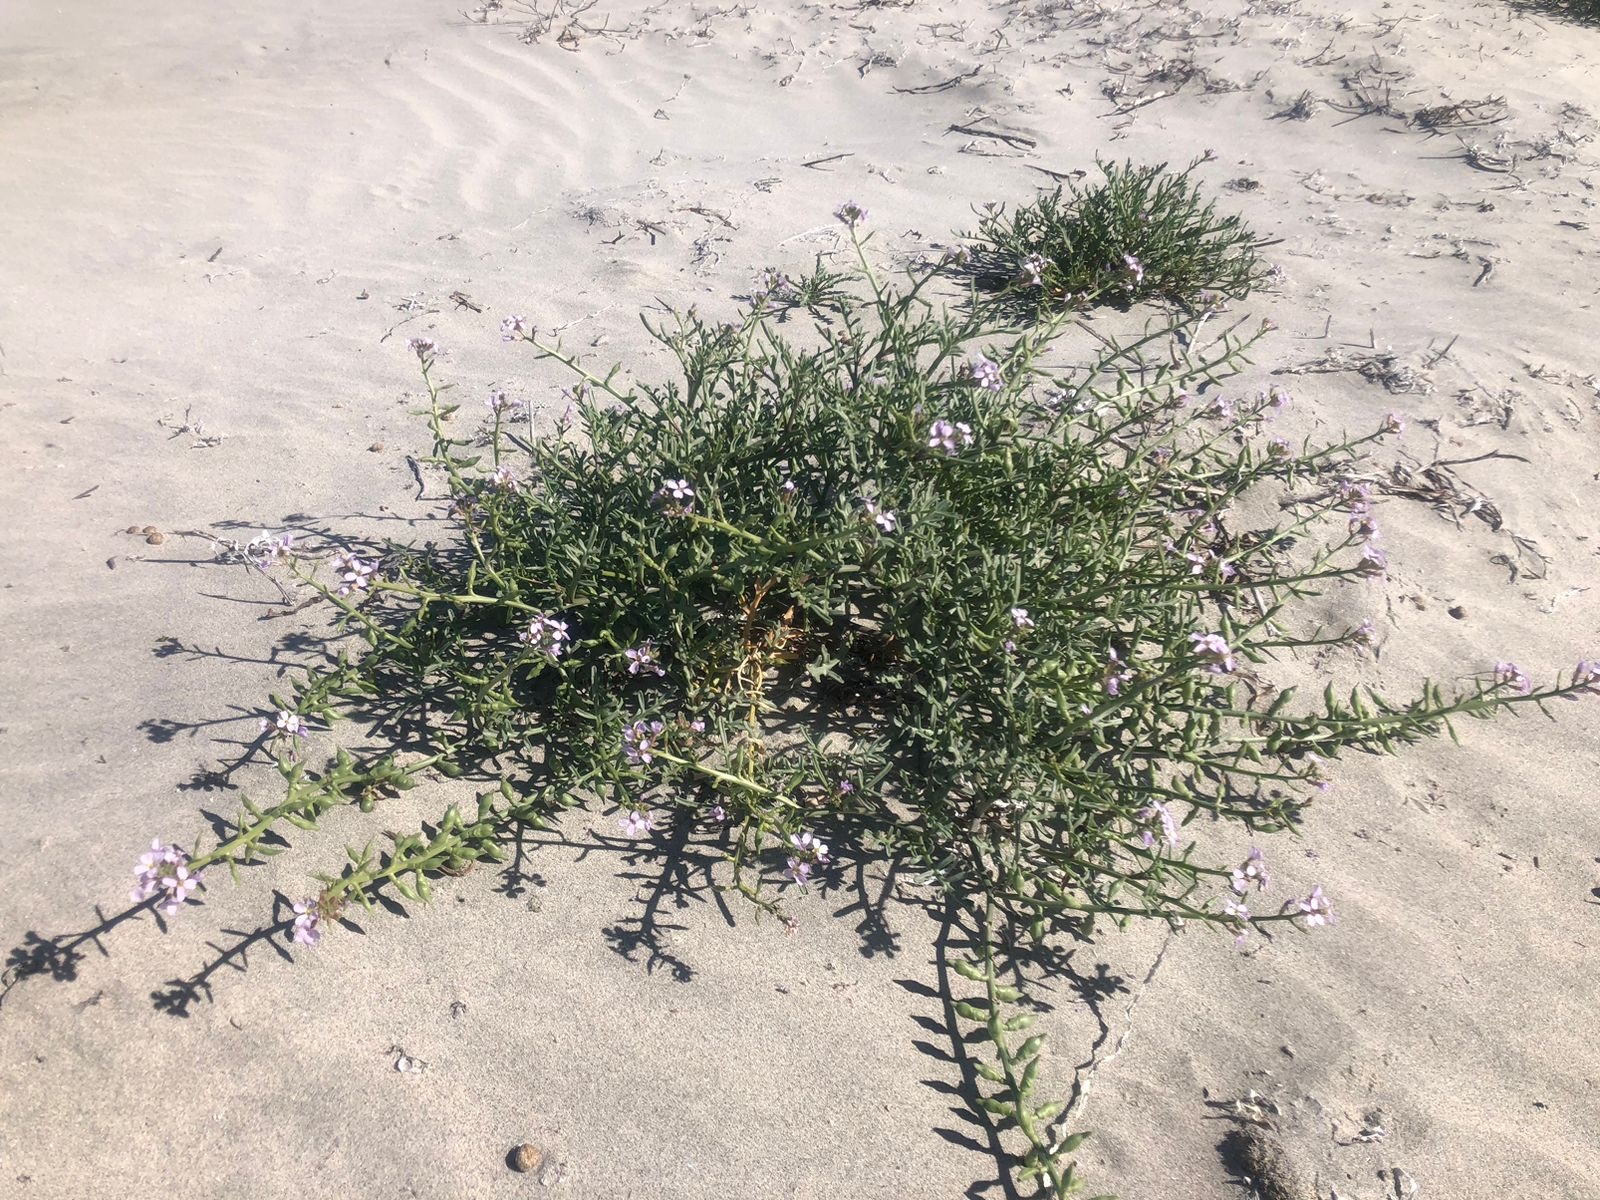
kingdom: Plantae
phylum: Tracheophyta
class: Magnoliopsida
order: Brassicales
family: Brassicaceae
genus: Cakile
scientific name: Cakile maritima
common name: Sea rocket
